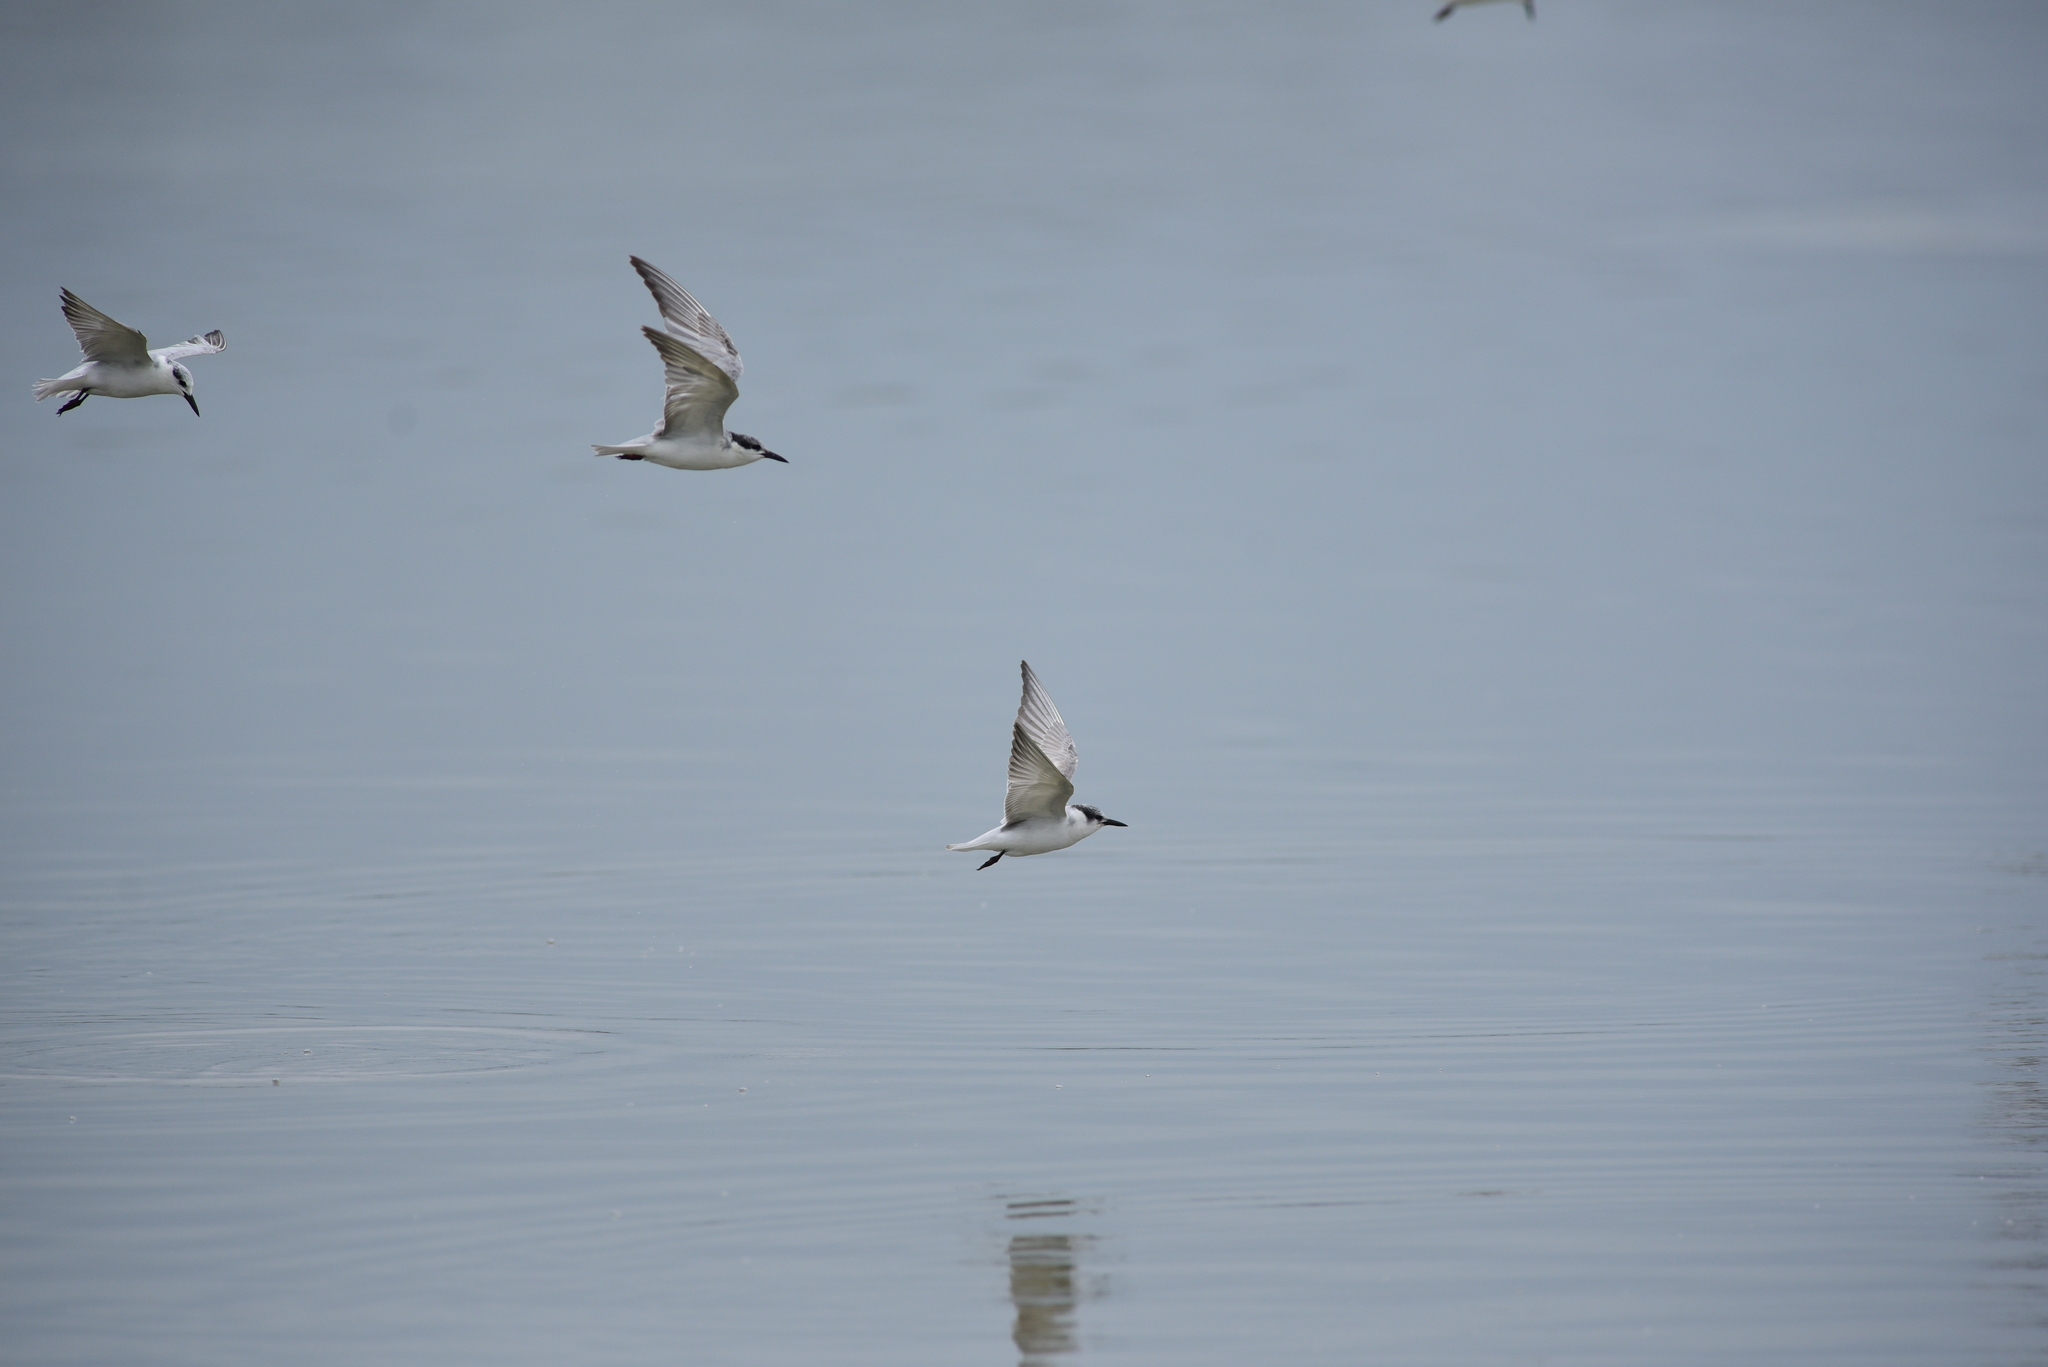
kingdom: Animalia
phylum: Chordata
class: Aves
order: Charadriiformes
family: Laridae
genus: Chlidonias
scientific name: Chlidonias hybrida
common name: Whiskered tern
